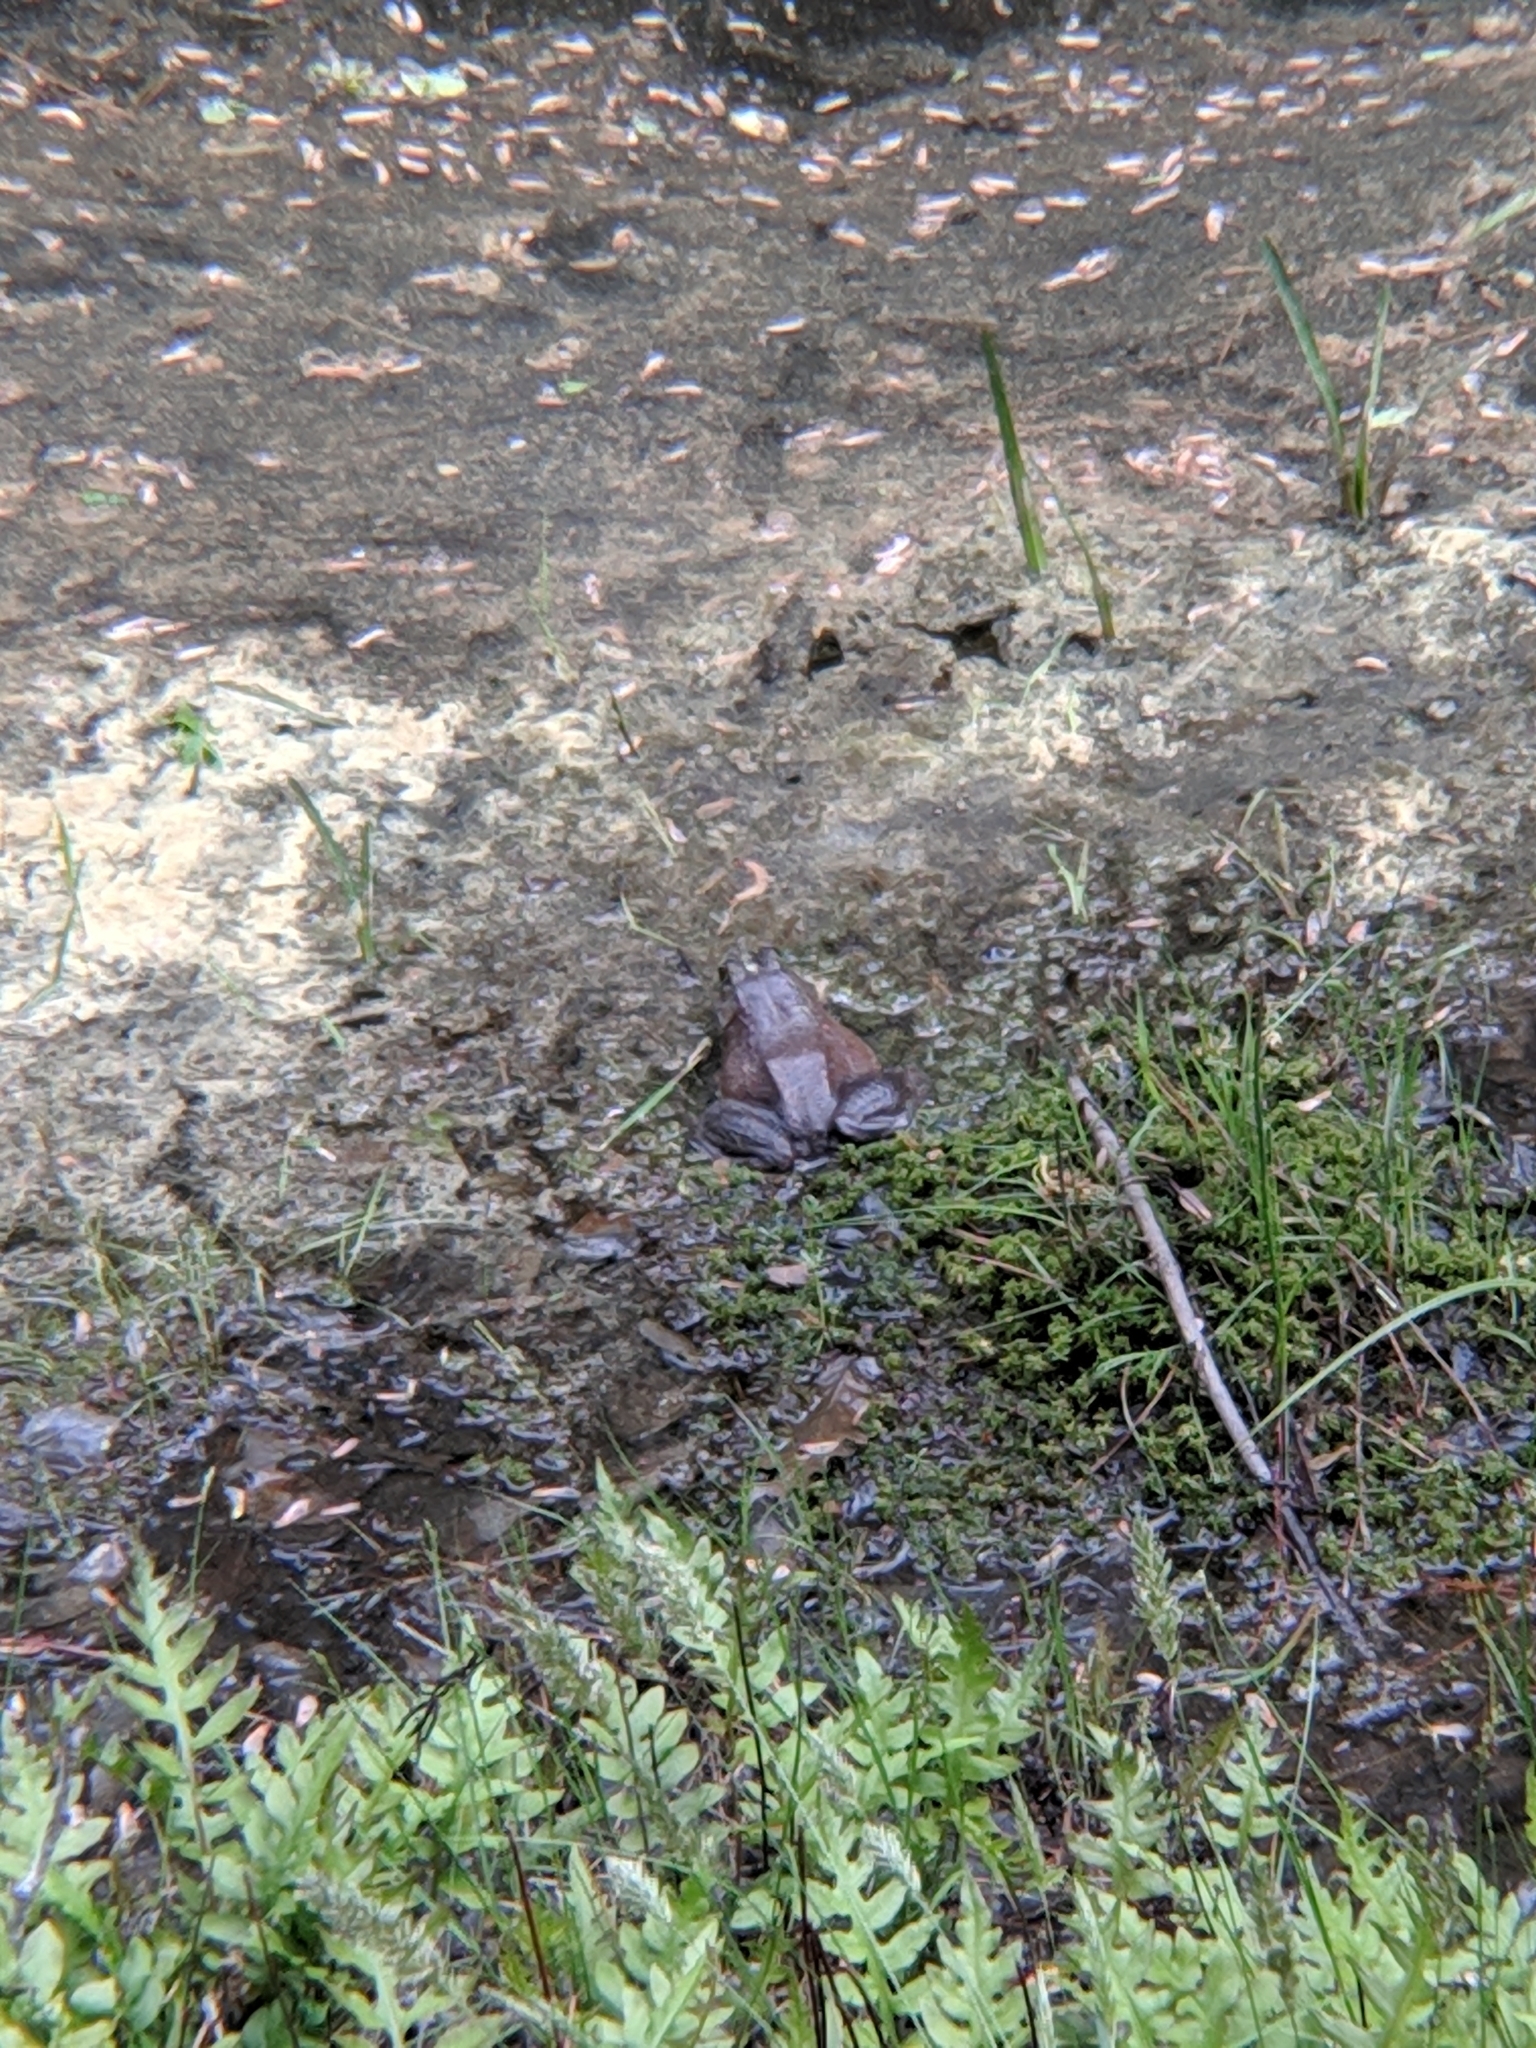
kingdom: Animalia
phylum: Chordata
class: Amphibia
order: Anura
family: Ranidae
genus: Lithobates
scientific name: Lithobates catesbeianus
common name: American bullfrog
